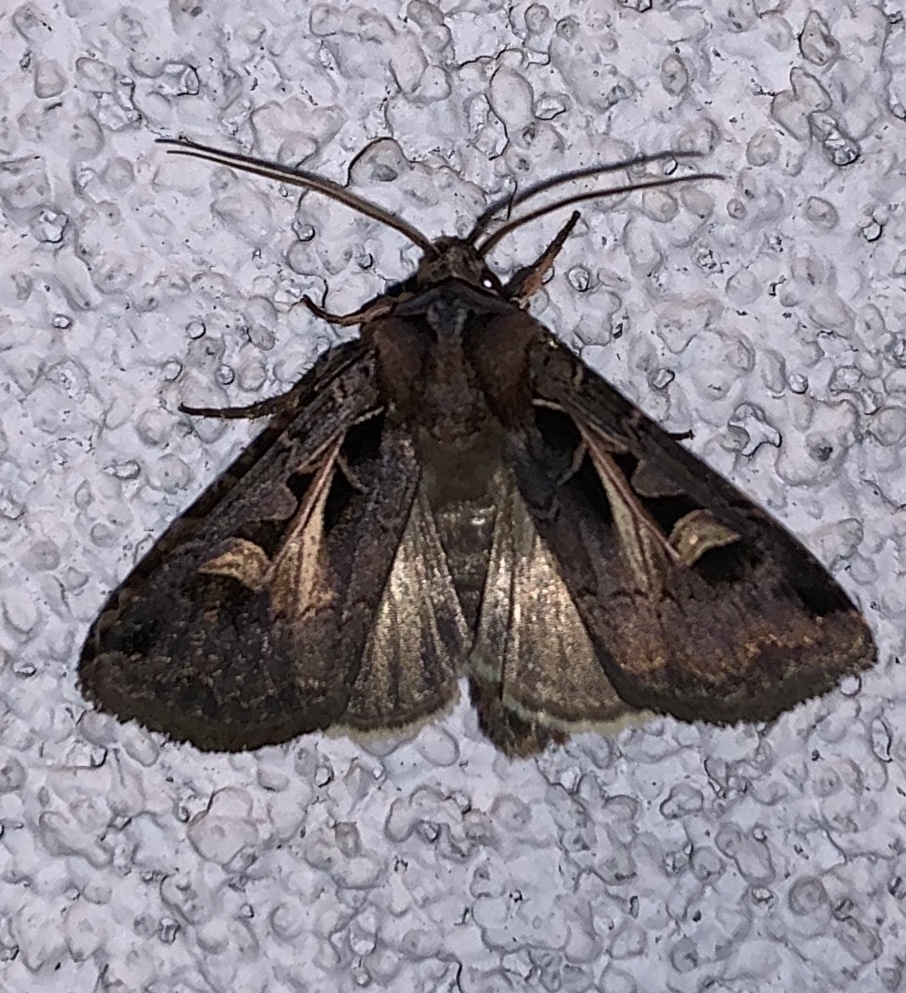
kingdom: Animalia
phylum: Arthropoda
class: Insecta
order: Lepidoptera
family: Noctuidae
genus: Feltia
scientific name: Feltia herilis
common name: Master's dart
